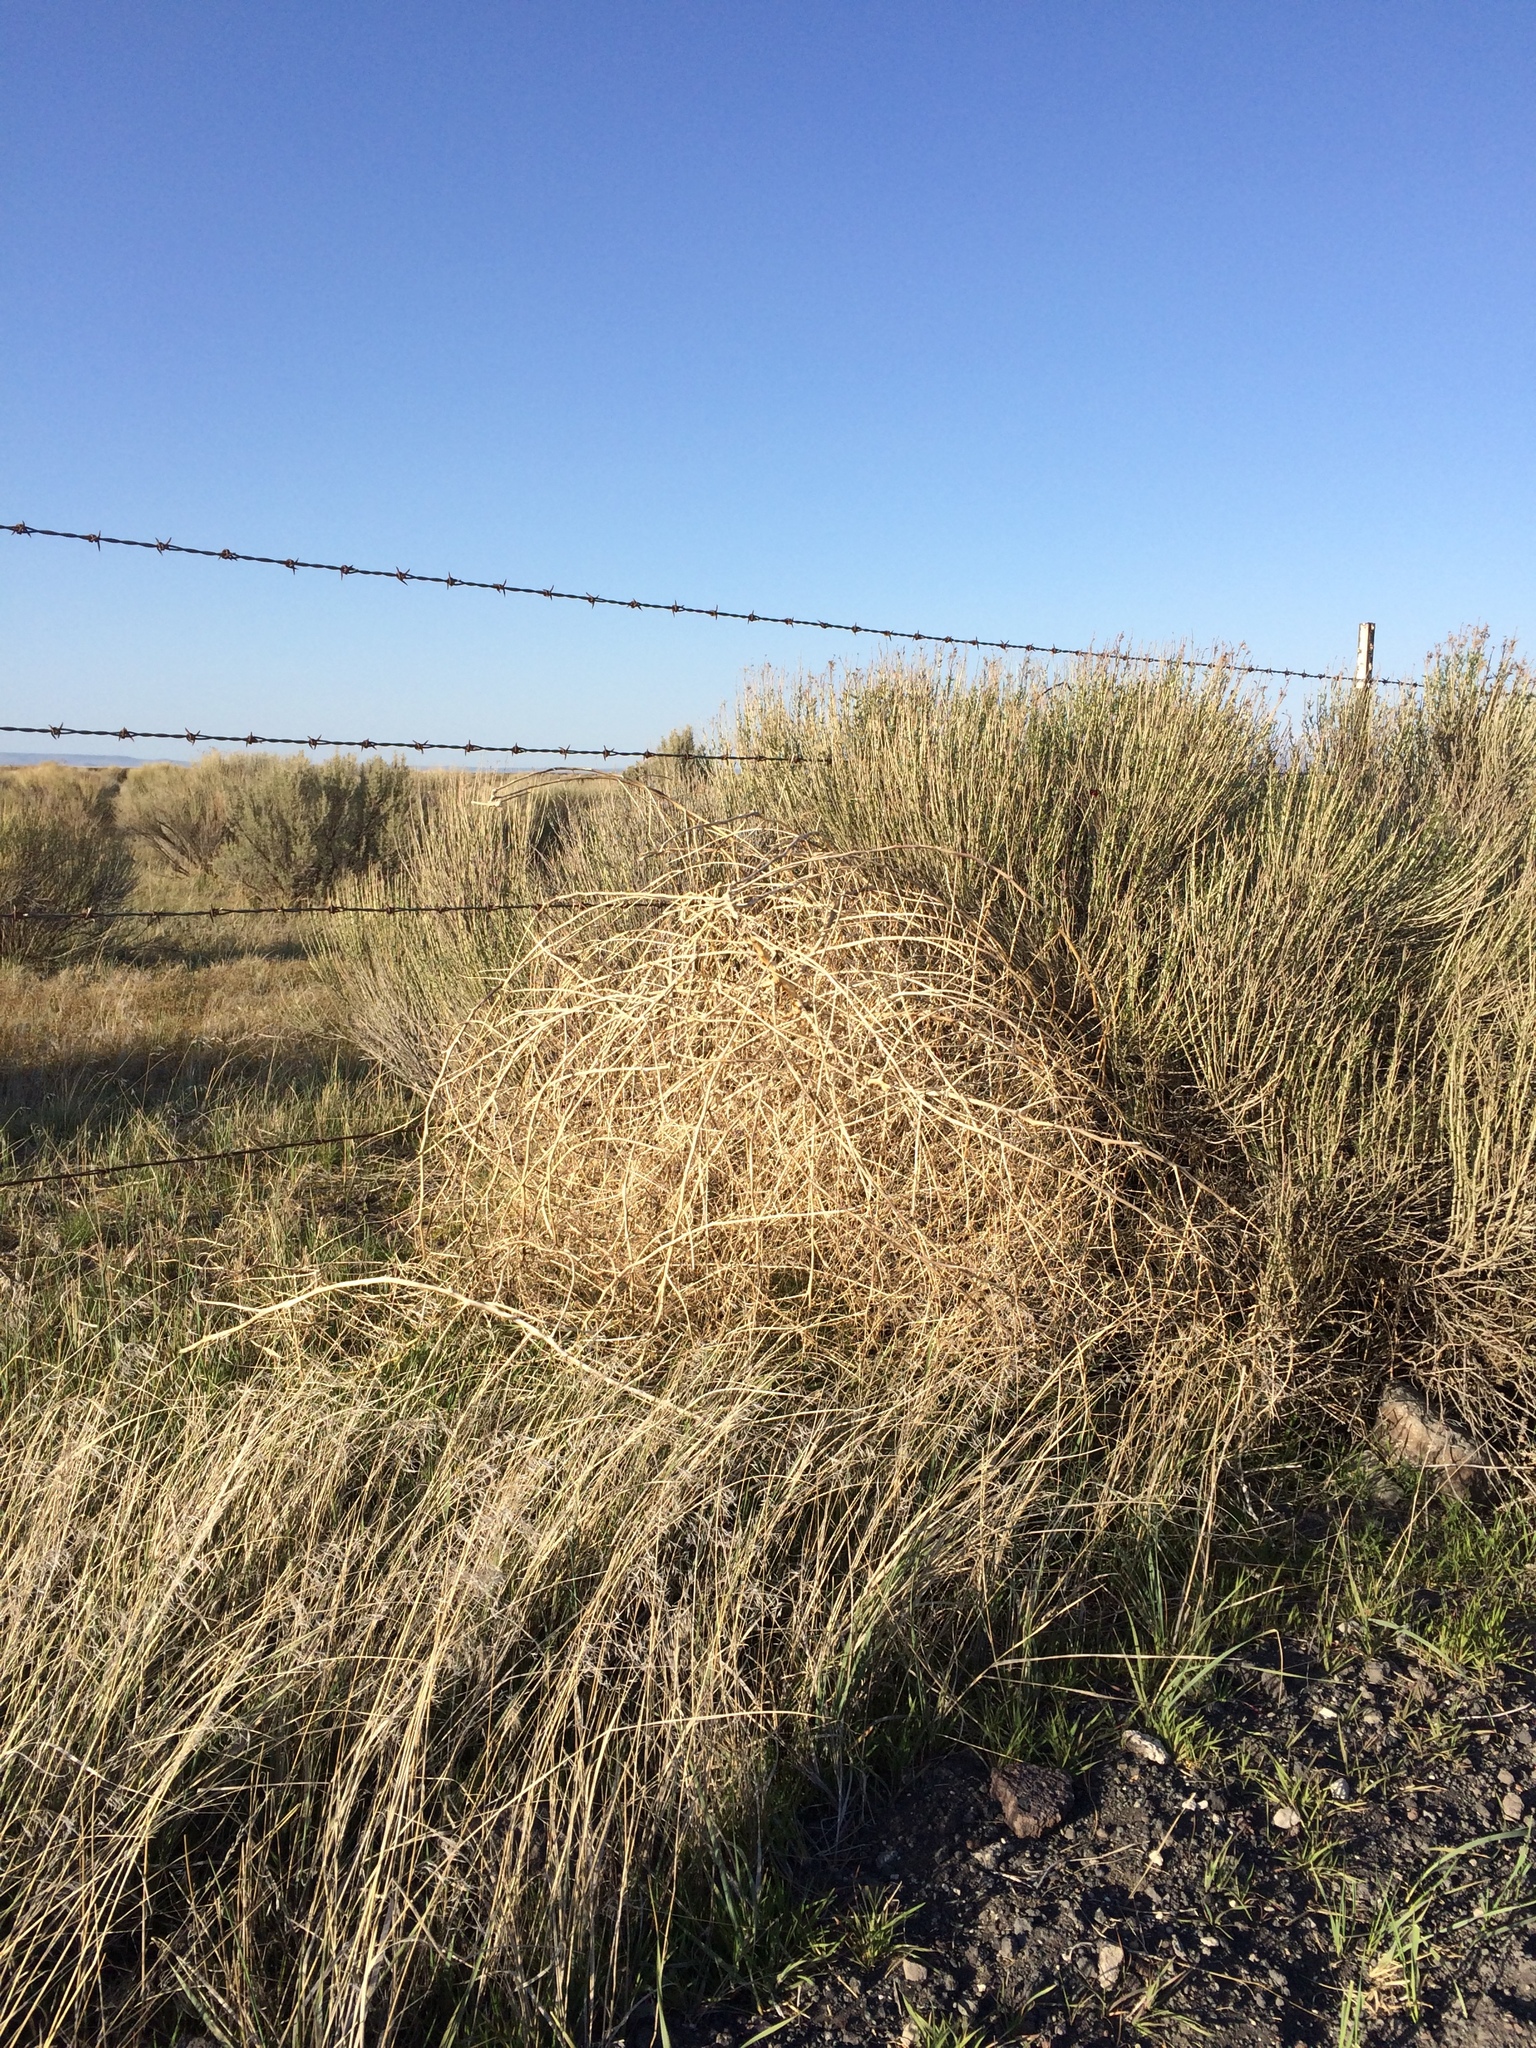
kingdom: Plantae
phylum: Tracheophyta
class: Magnoliopsida
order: Caryophyllales
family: Amaranthaceae
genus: Bassia
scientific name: Bassia scoparia
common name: Belvedere
